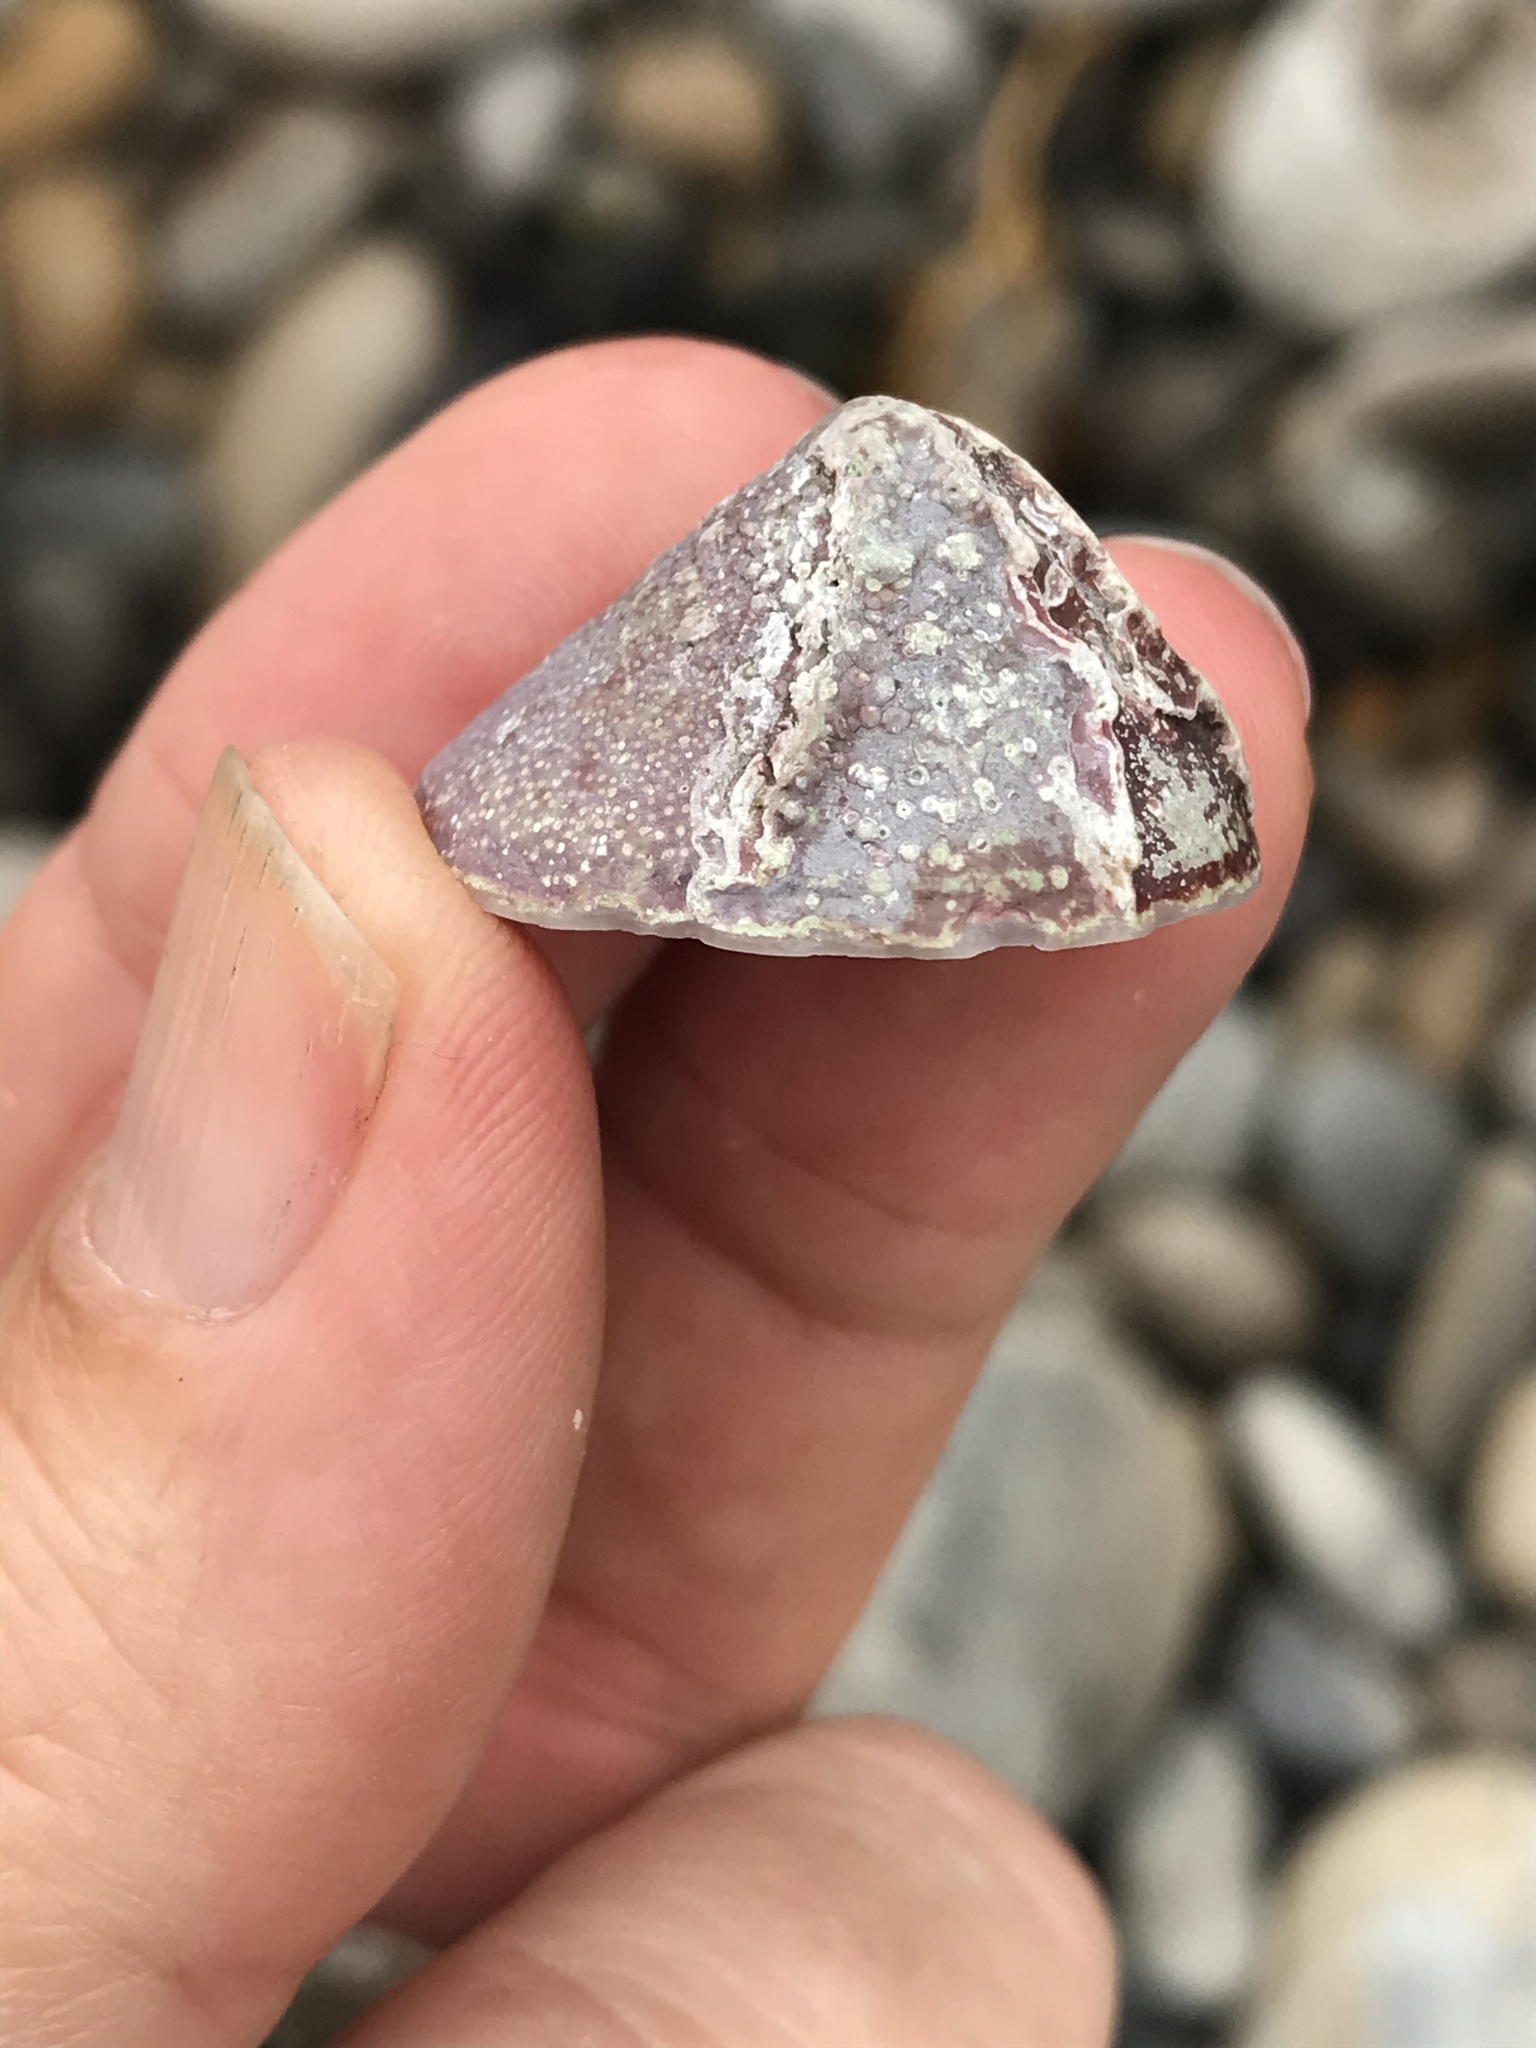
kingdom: Animalia
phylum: Mollusca
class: Gastropoda
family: Acmaeidae
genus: Acmaea
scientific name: Acmaea mitra
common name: Pacific white cap limpet
